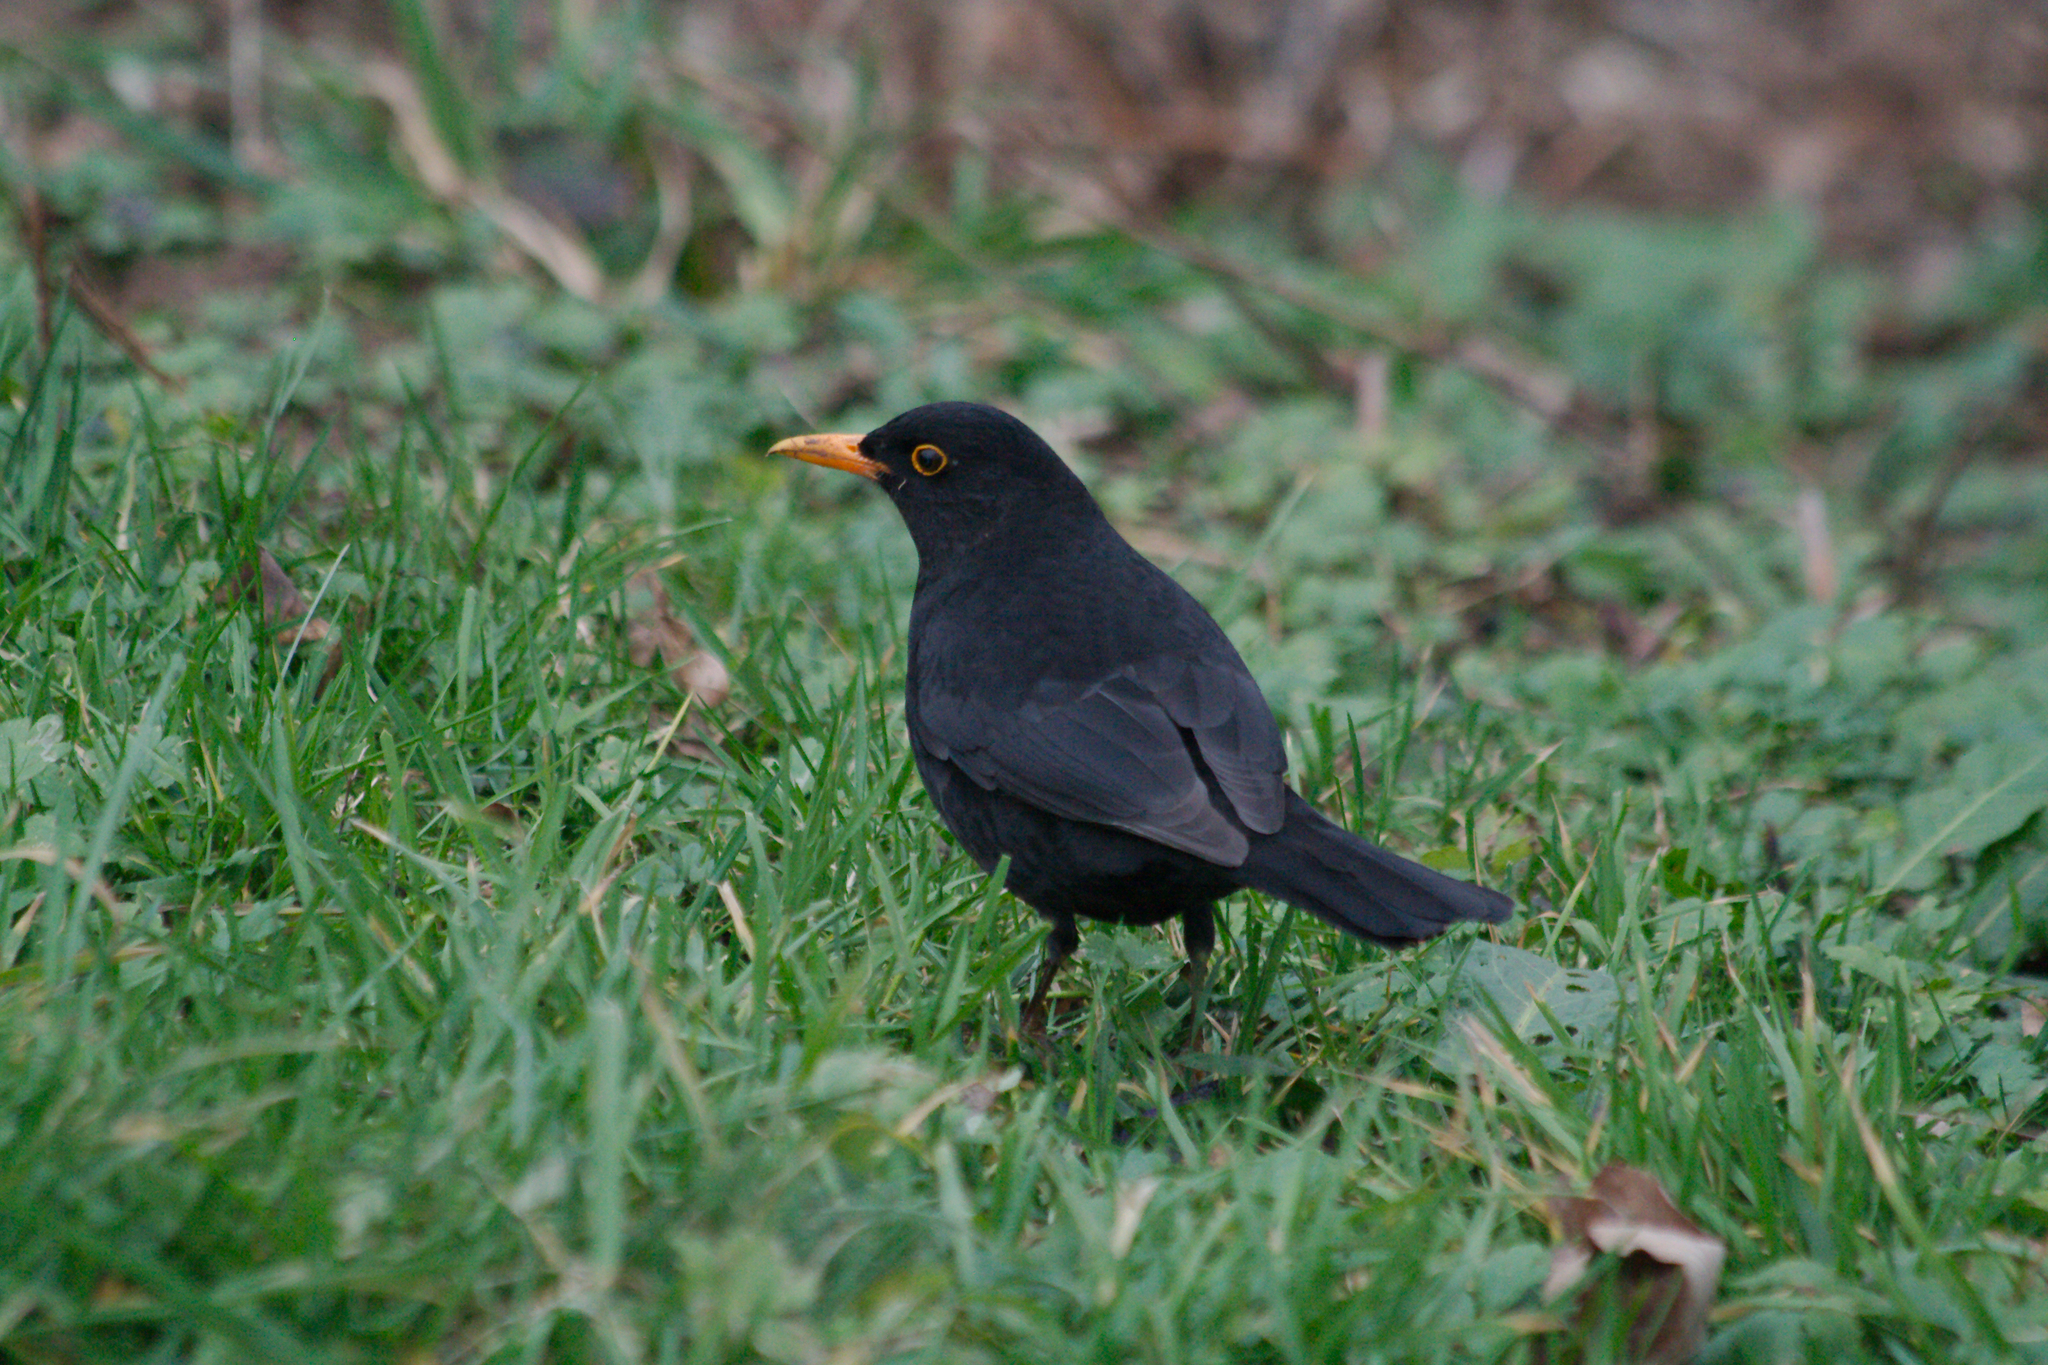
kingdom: Animalia
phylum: Chordata
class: Aves
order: Passeriformes
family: Turdidae
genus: Turdus
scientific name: Turdus merula
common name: Common blackbird
